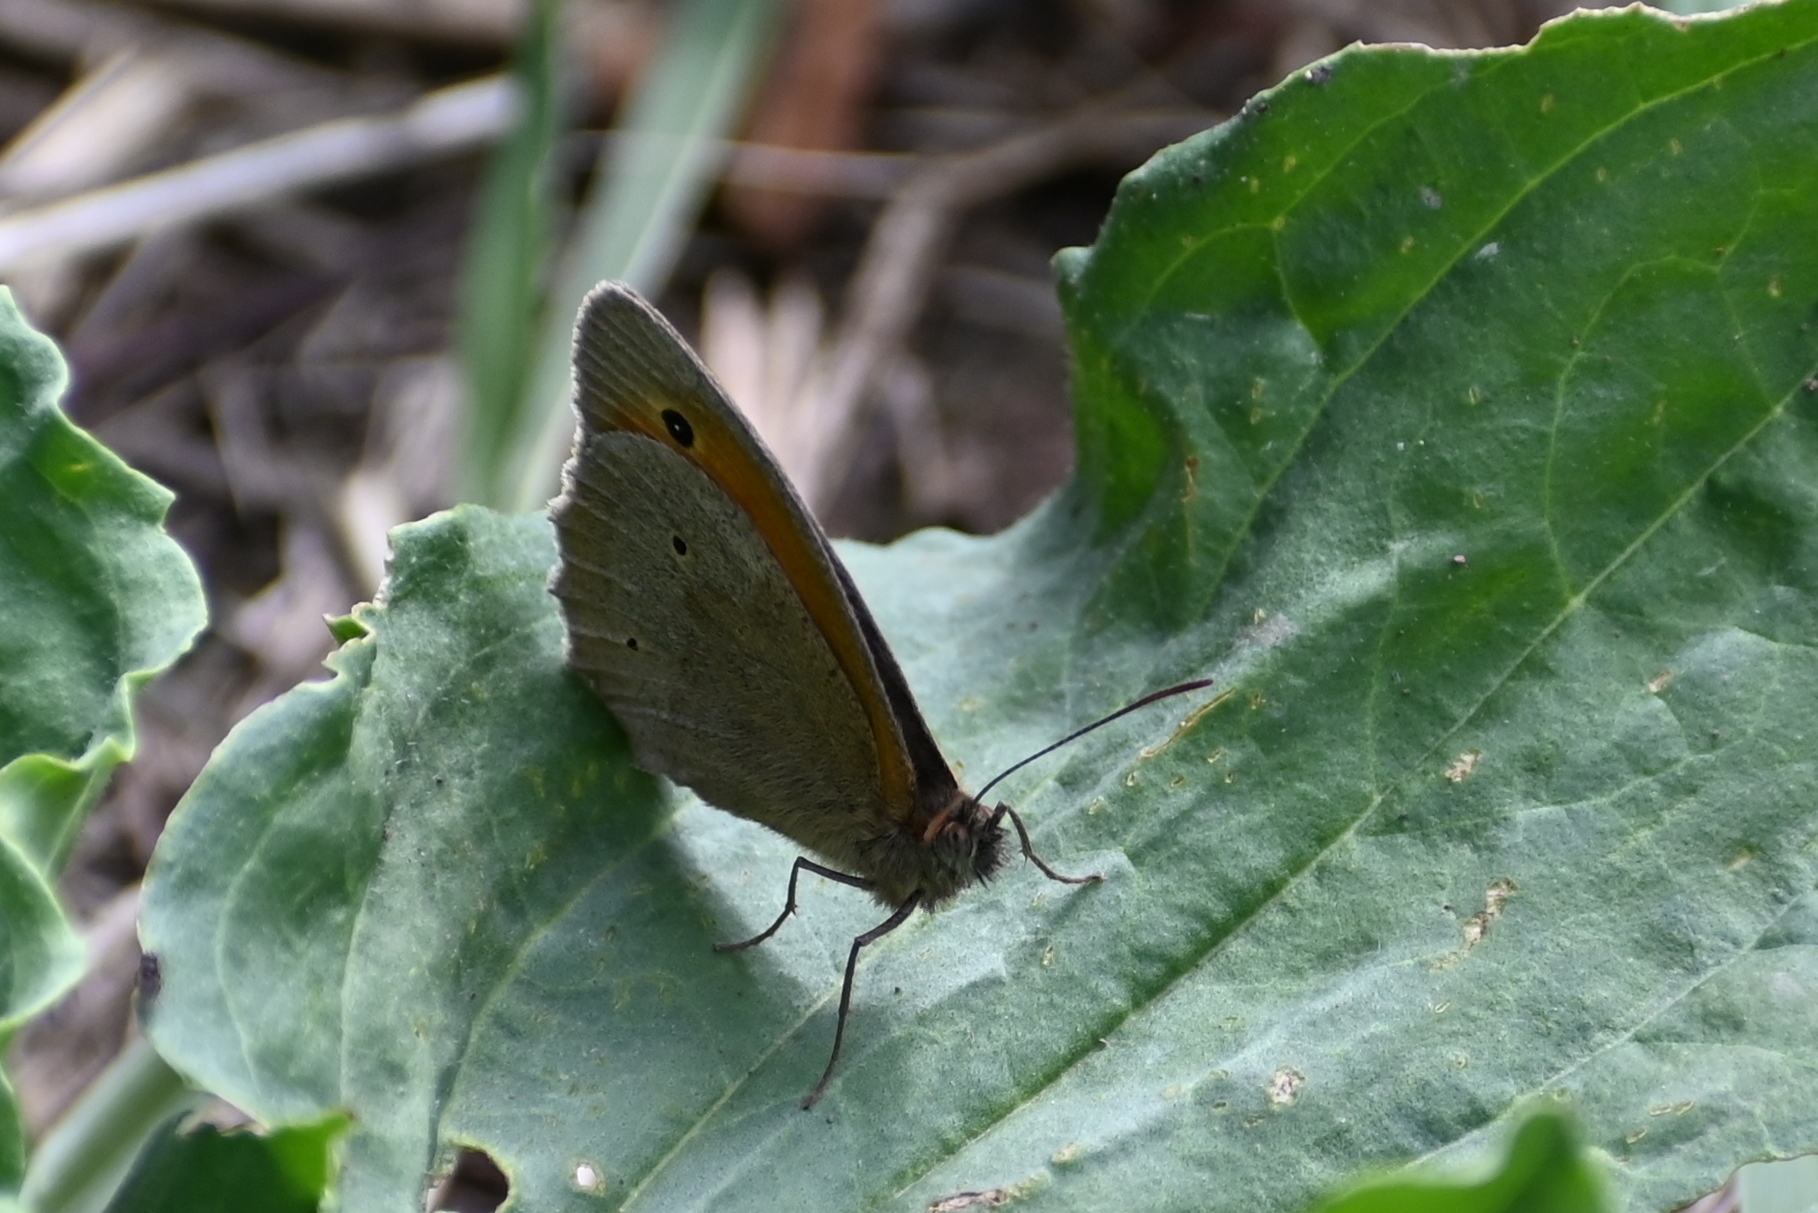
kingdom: Animalia
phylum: Arthropoda
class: Insecta
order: Lepidoptera
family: Nymphalidae
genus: Maniola
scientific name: Maniola jurtina
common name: Meadow brown
